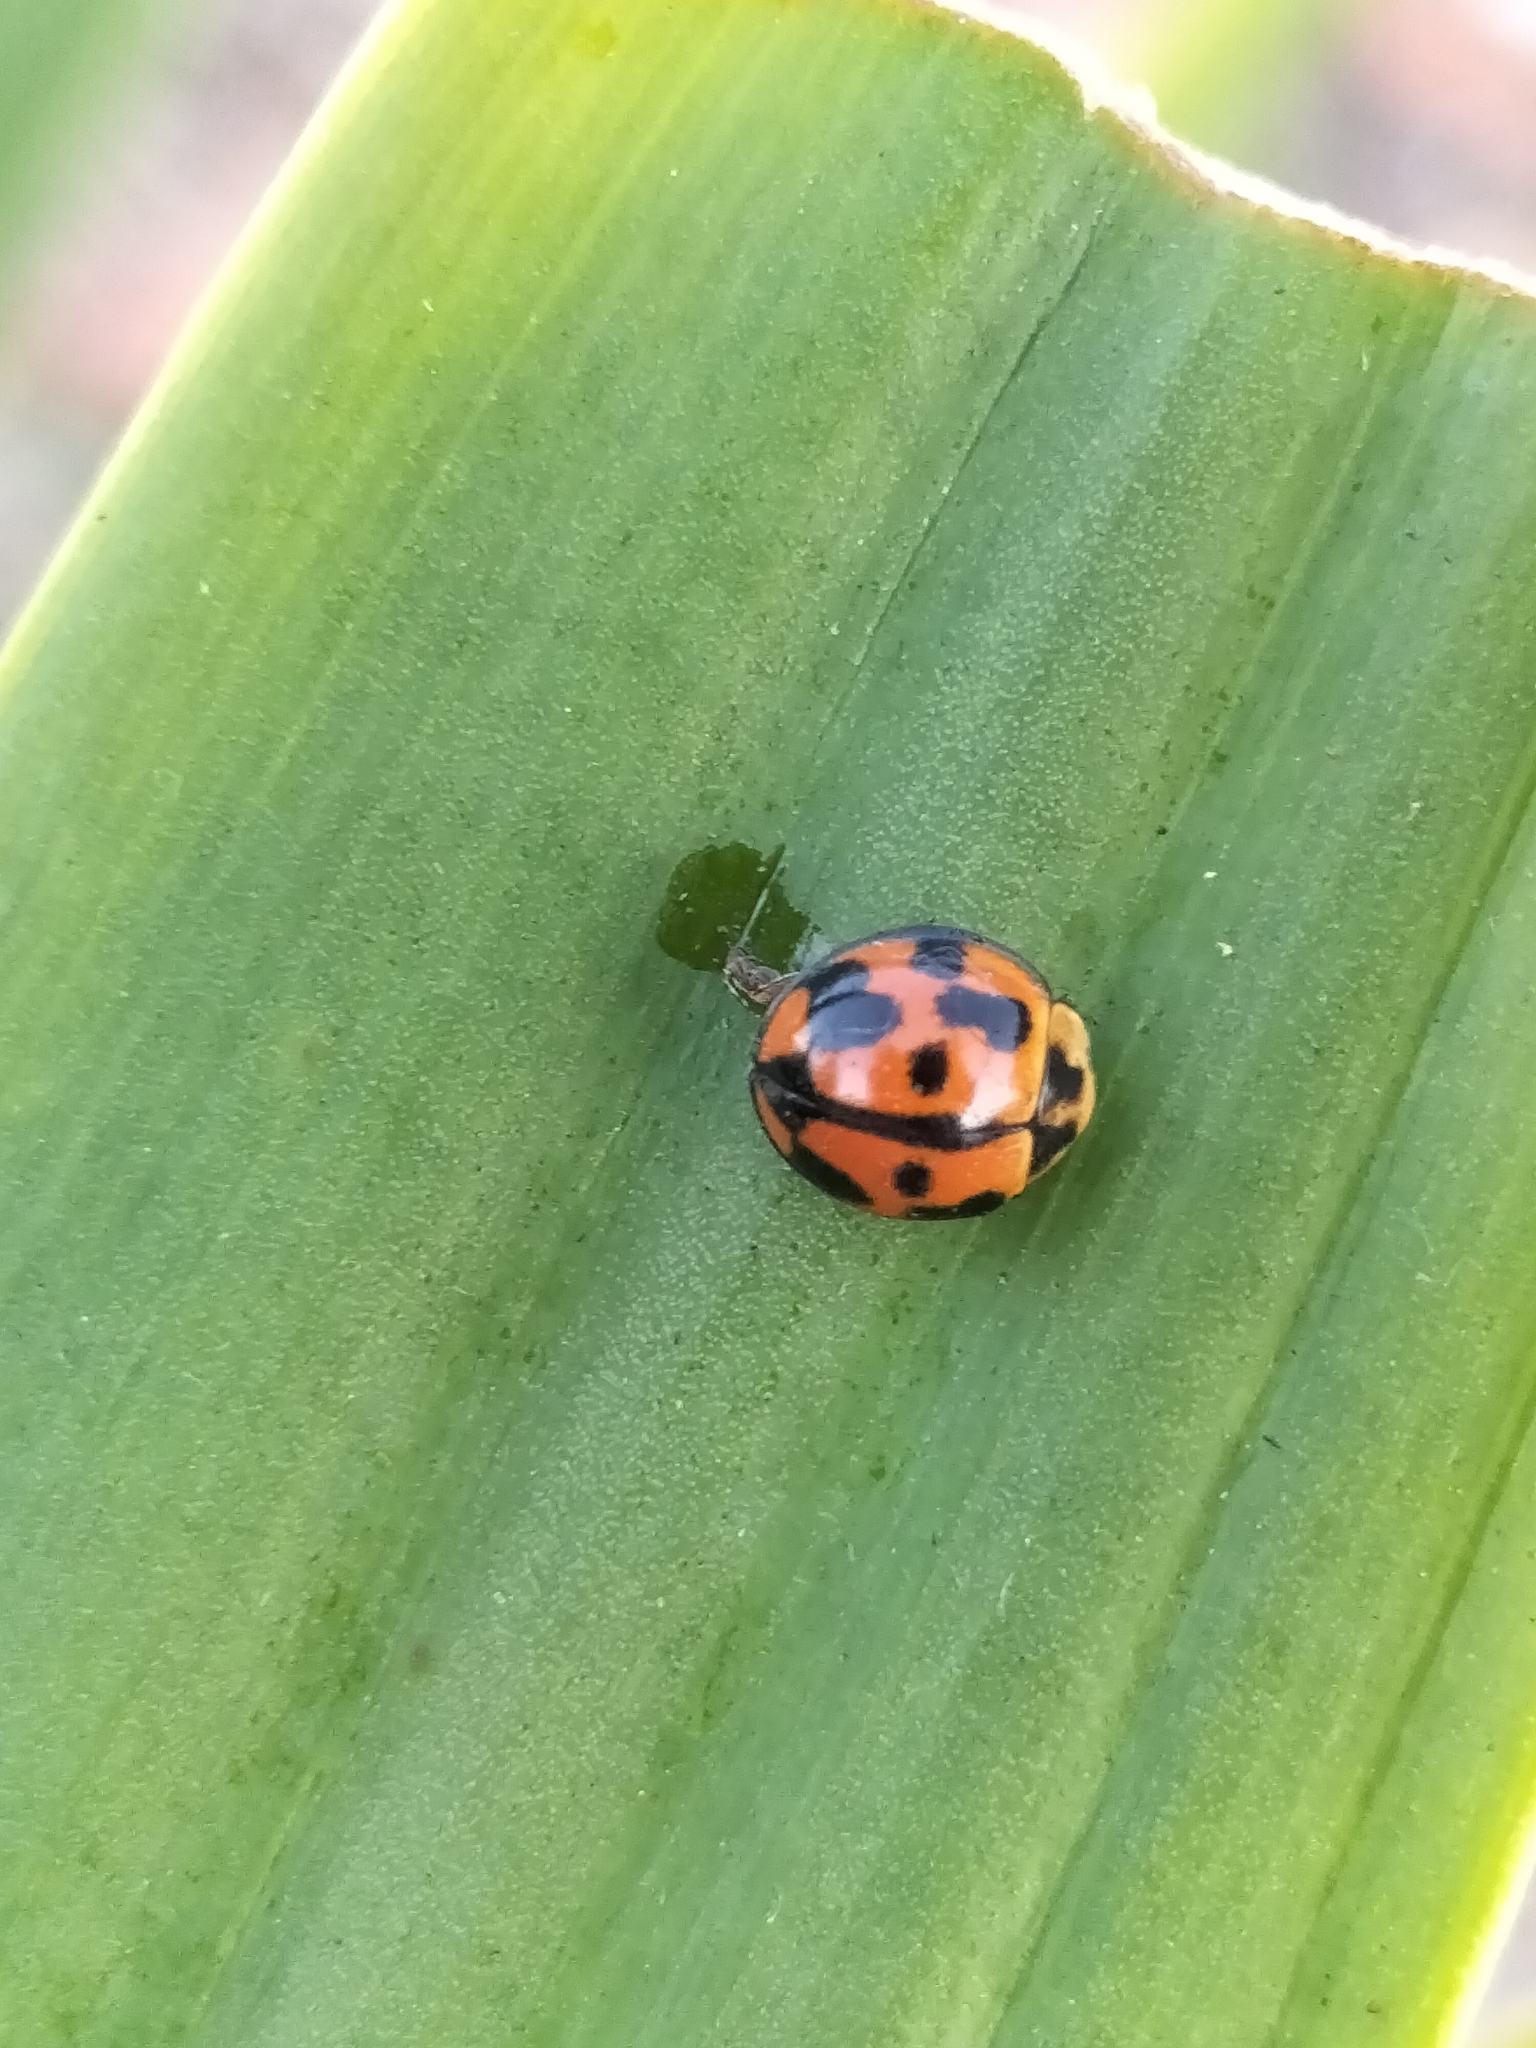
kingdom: Animalia
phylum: Arthropoda
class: Insecta
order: Coleoptera
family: Coccinellidae
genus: Coelophora
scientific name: Coelophora inaequalis
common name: Common australian lady beetle
